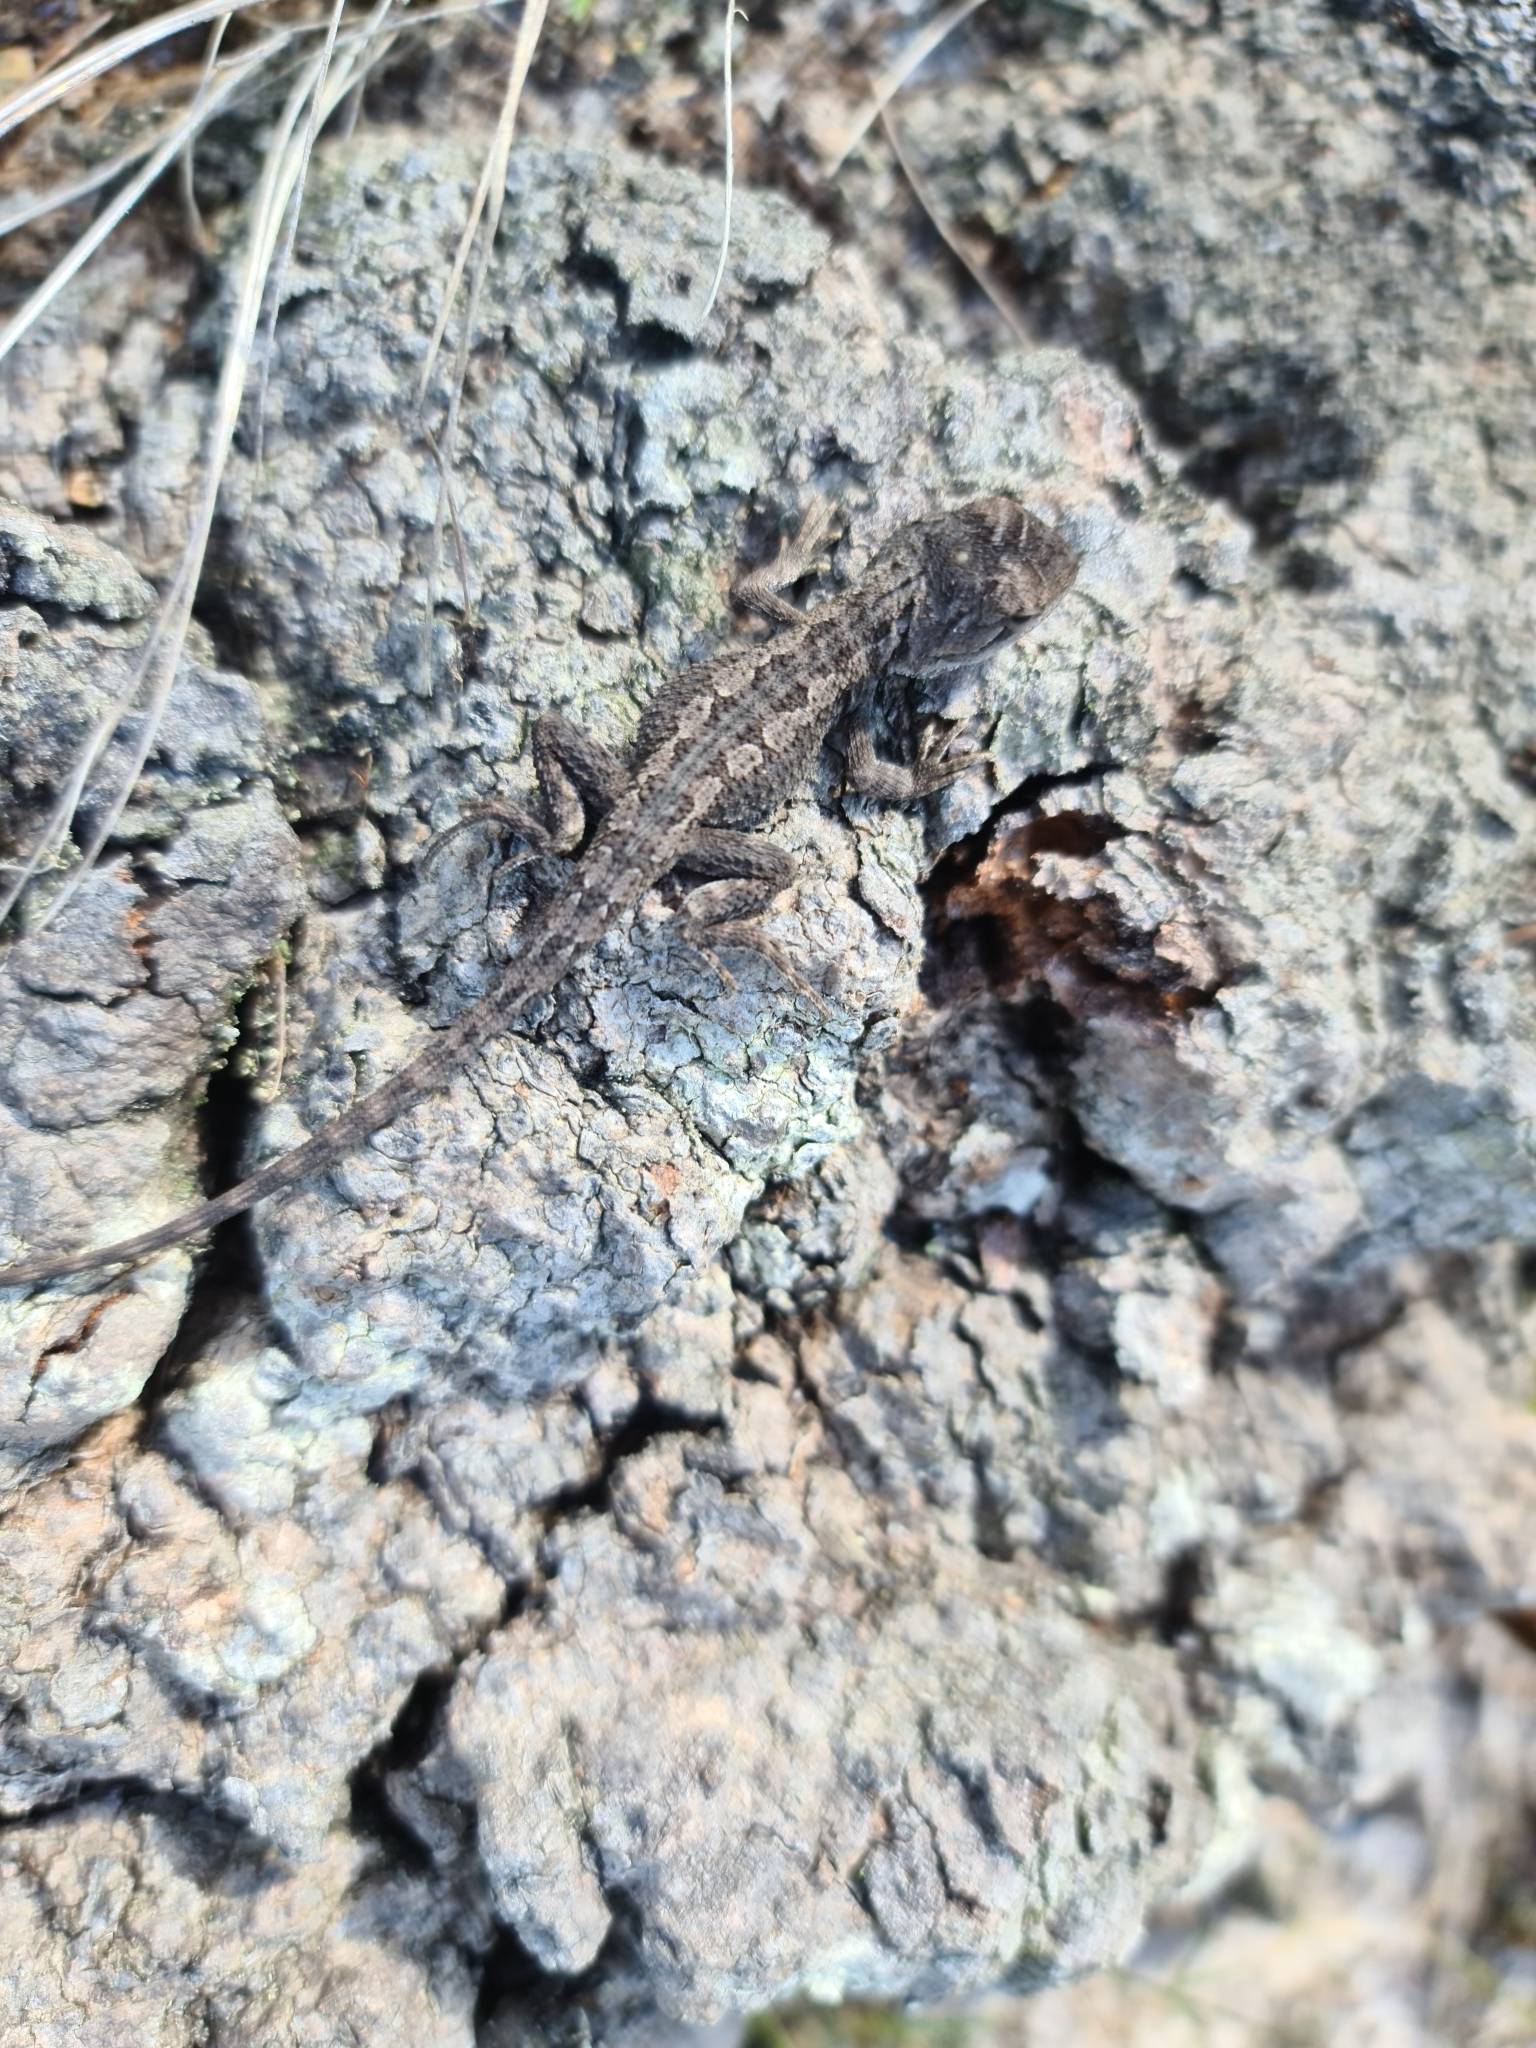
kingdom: Animalia
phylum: Chordata
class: Squamata
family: Agamidae
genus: Amphibolurus
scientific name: Amphibolurus muricatus
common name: Jacky lizard
